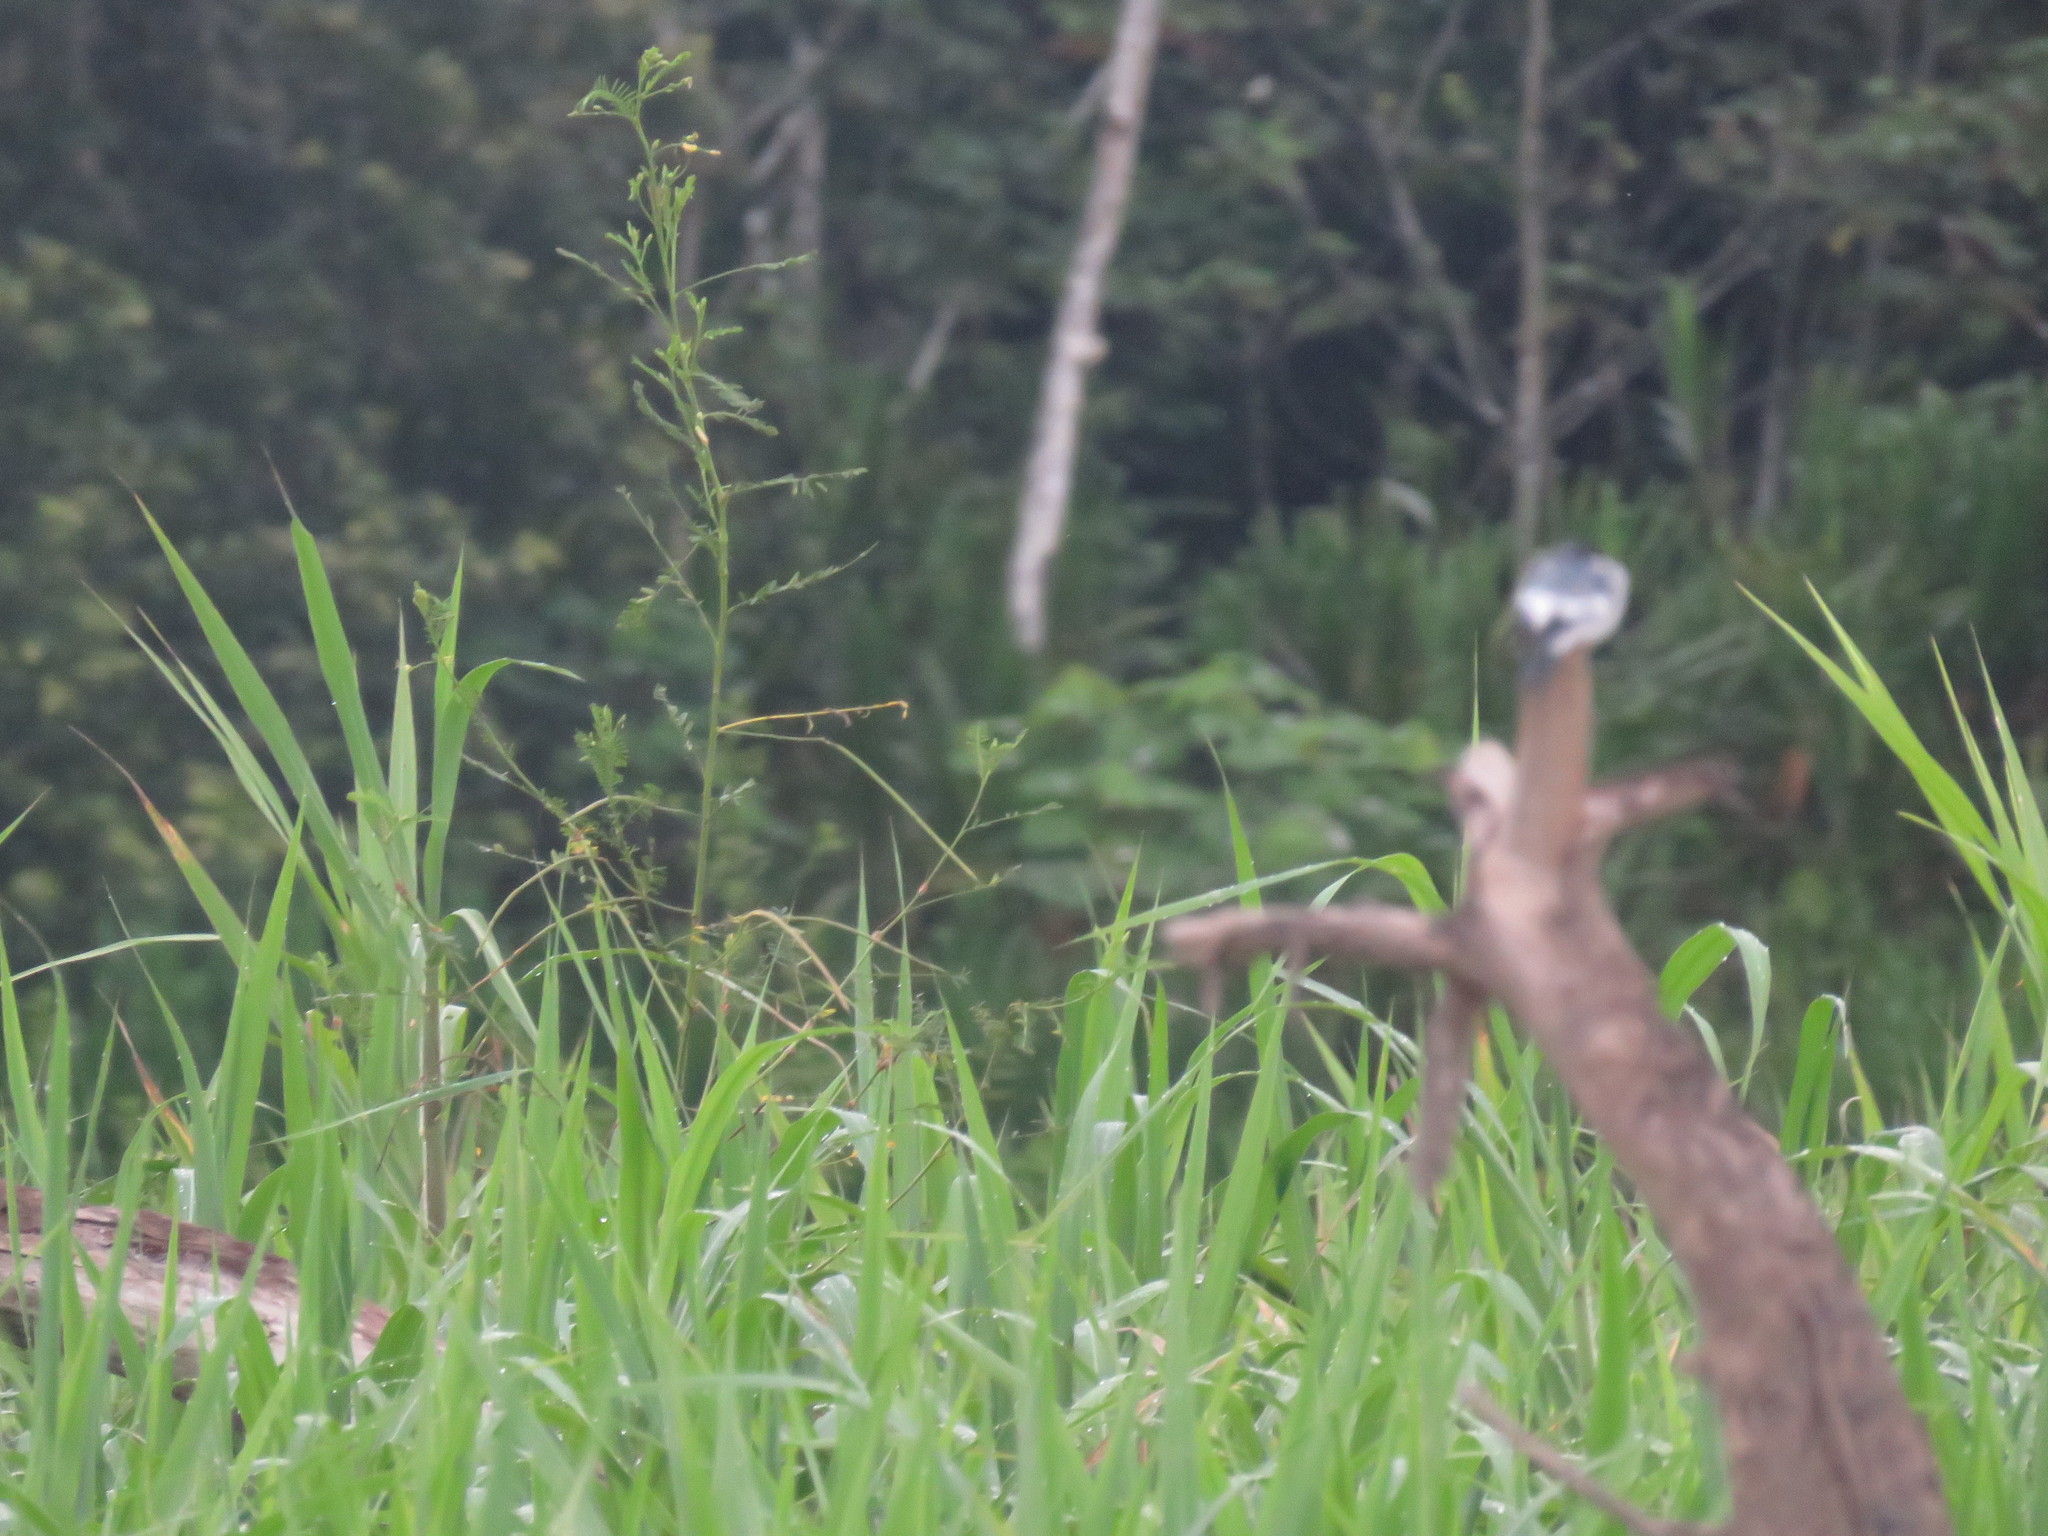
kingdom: Animalia
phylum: Chordata
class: Aves
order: Passeriformes
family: Hirundinidae
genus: Tachycineta
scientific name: Tachycineta albiventer
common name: White-winged swallow
